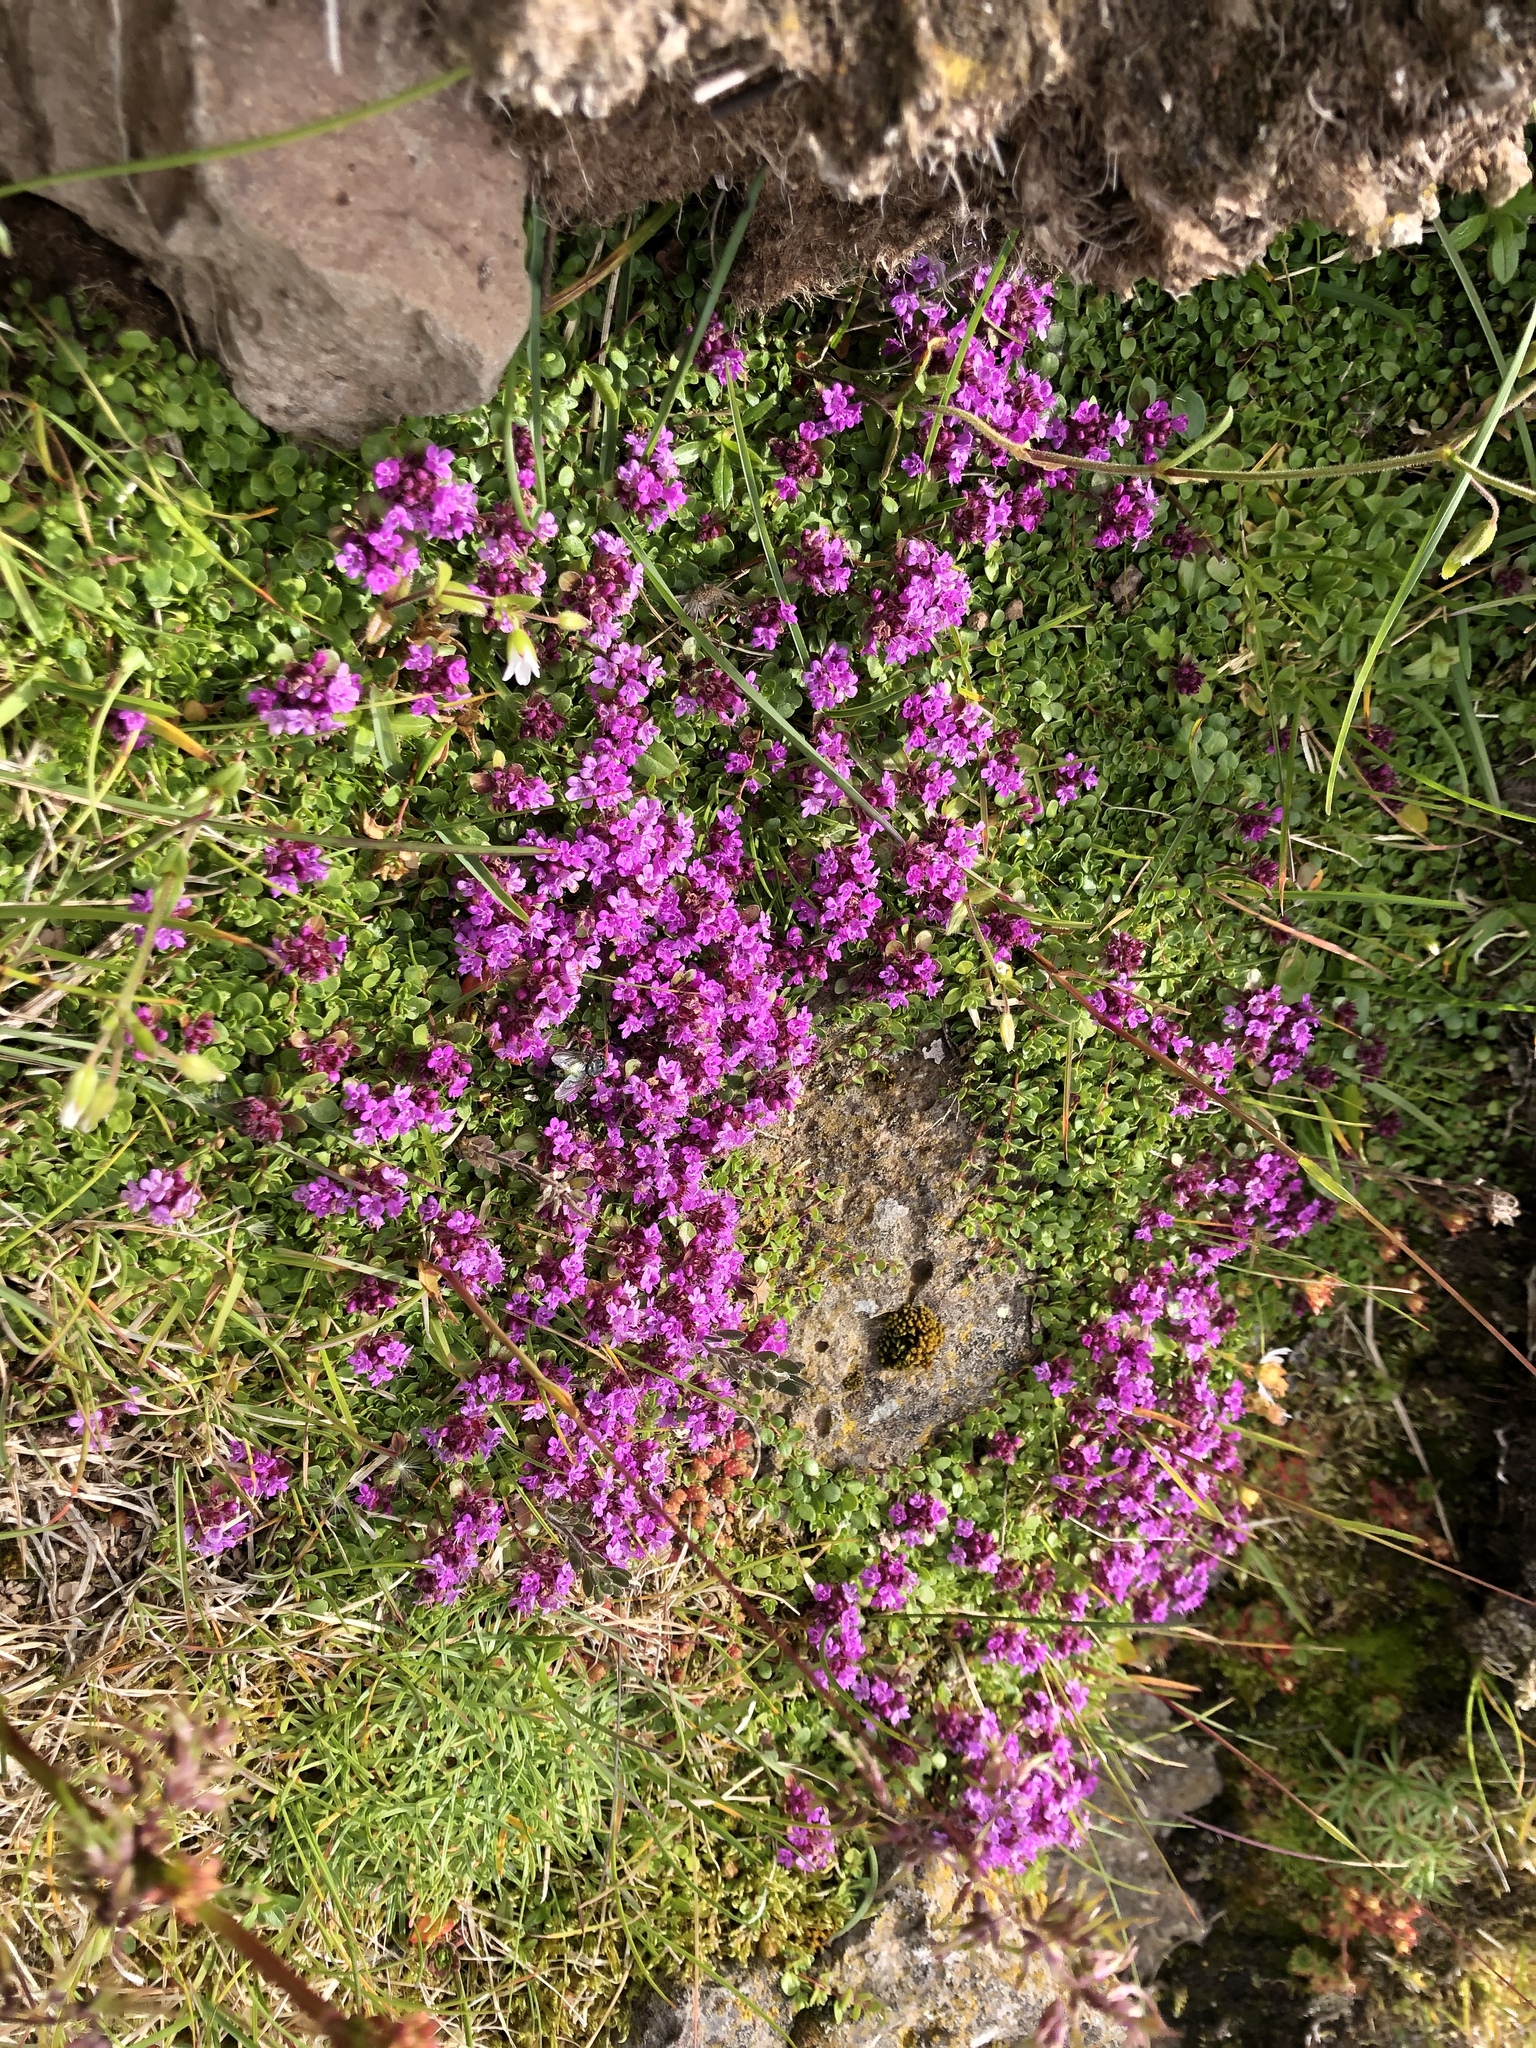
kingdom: Plantae
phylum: Tracheophyta
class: Magnoliopsida
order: Lamiales
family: Lamiaceae
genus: Thymus
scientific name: Thymus praecox
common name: Wild thyme
